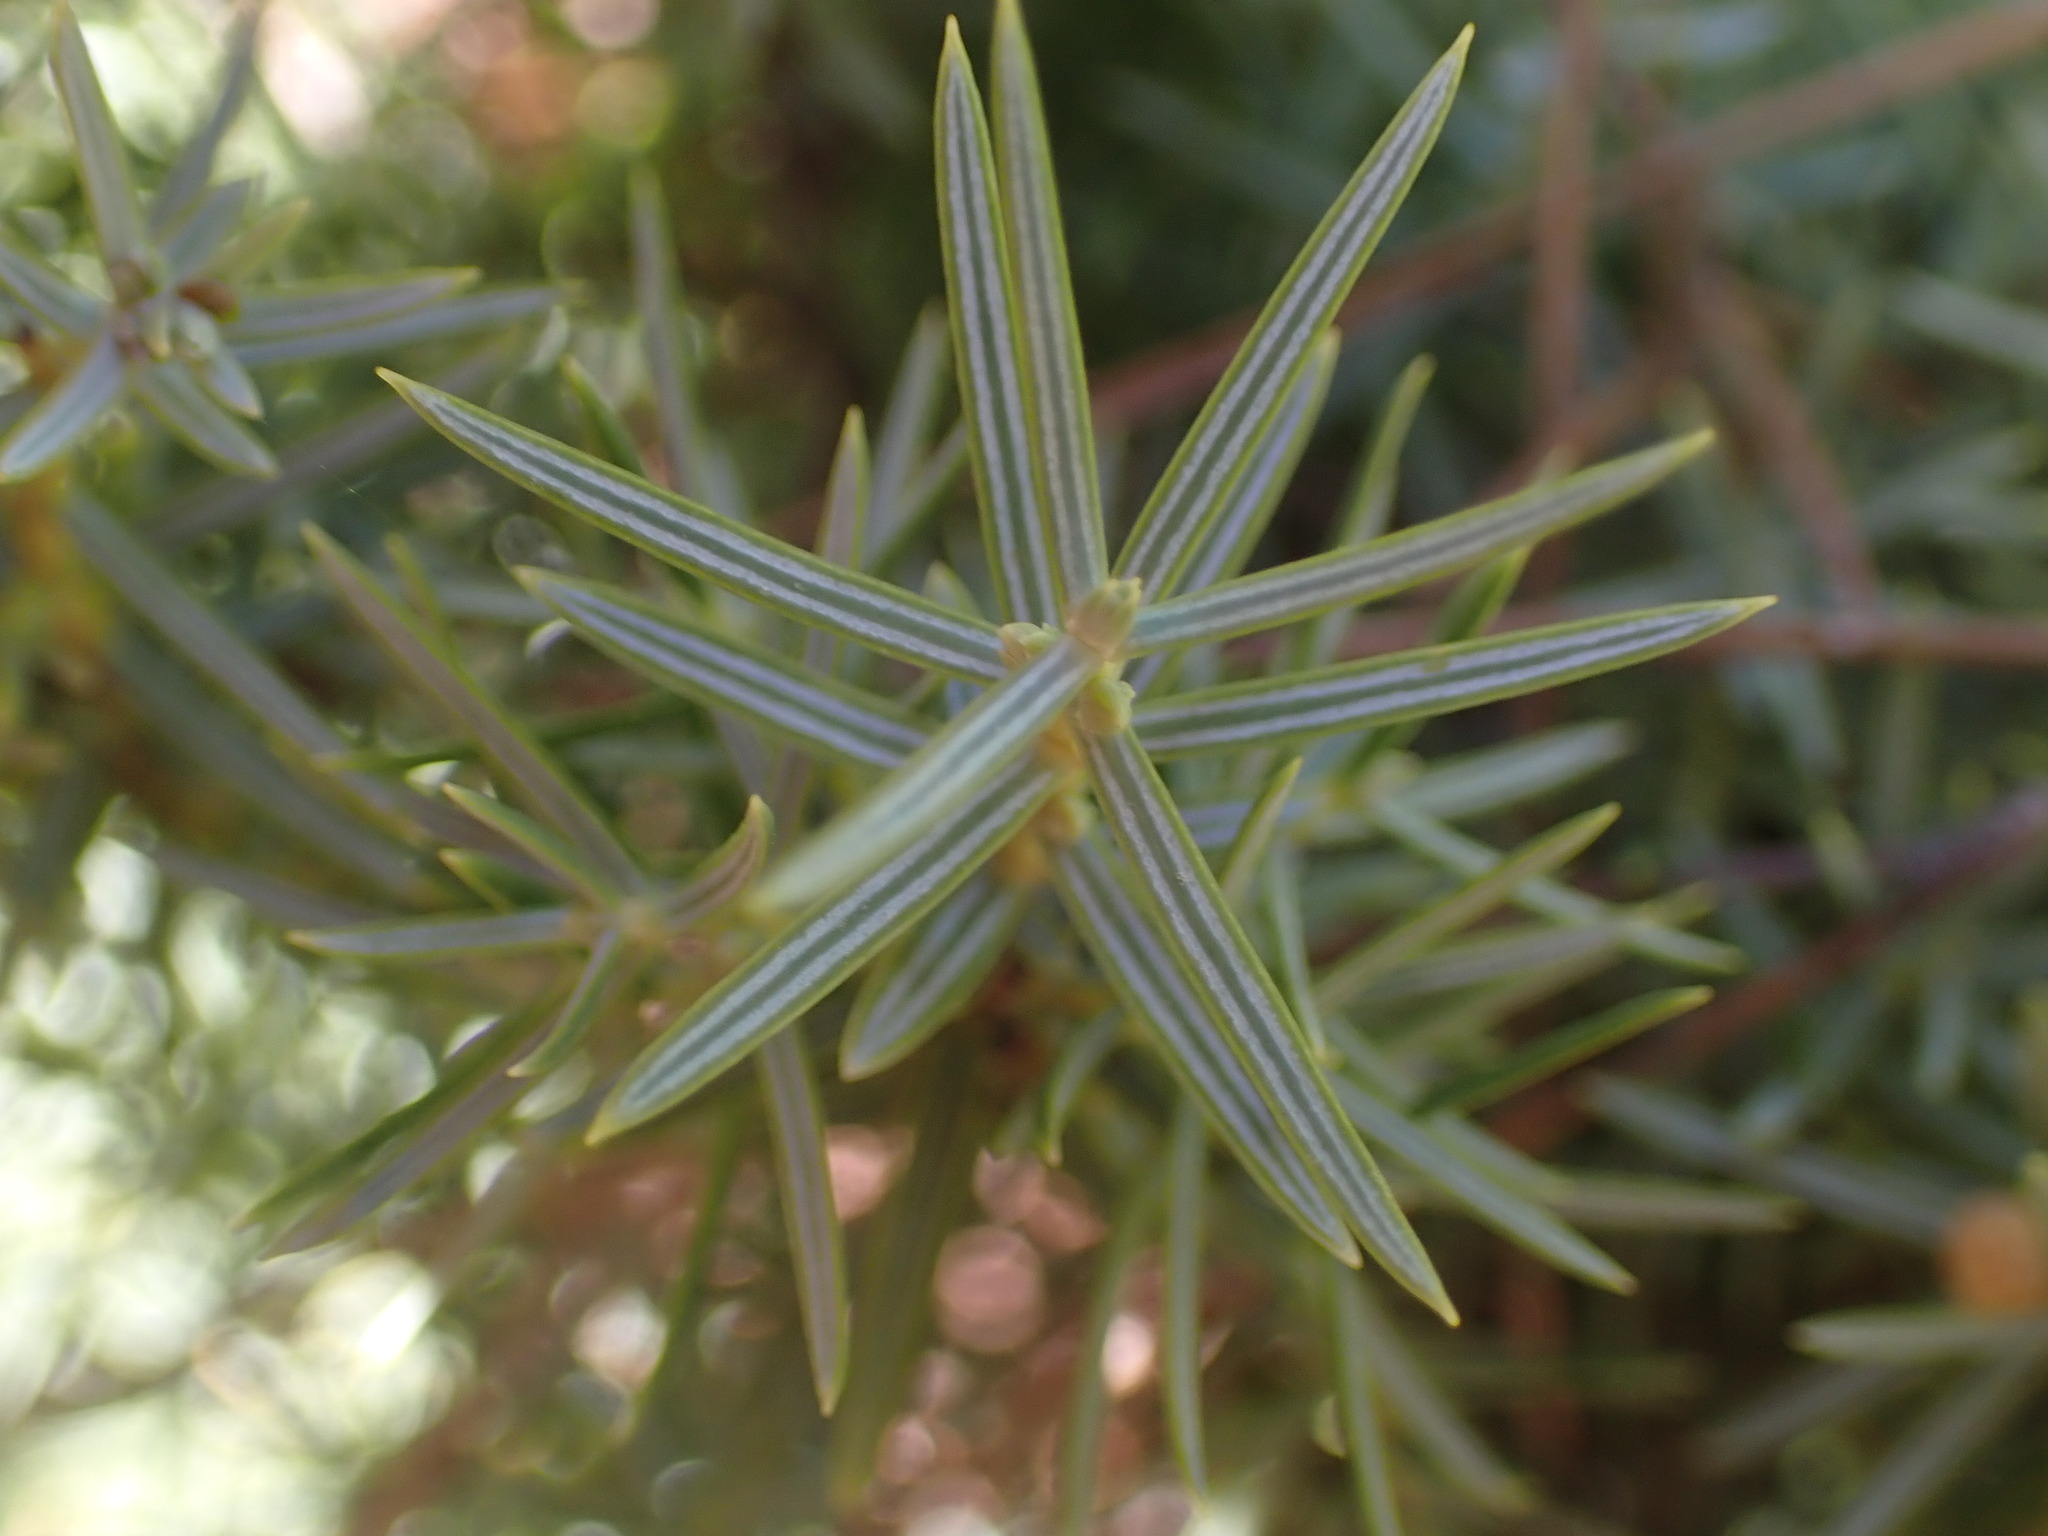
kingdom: Plantae
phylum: Tracheophyta
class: Pinopsida
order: Pinales
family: Cupressaceae
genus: Juniperus
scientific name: Juniperus oxycedrus
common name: Prickly juniper
